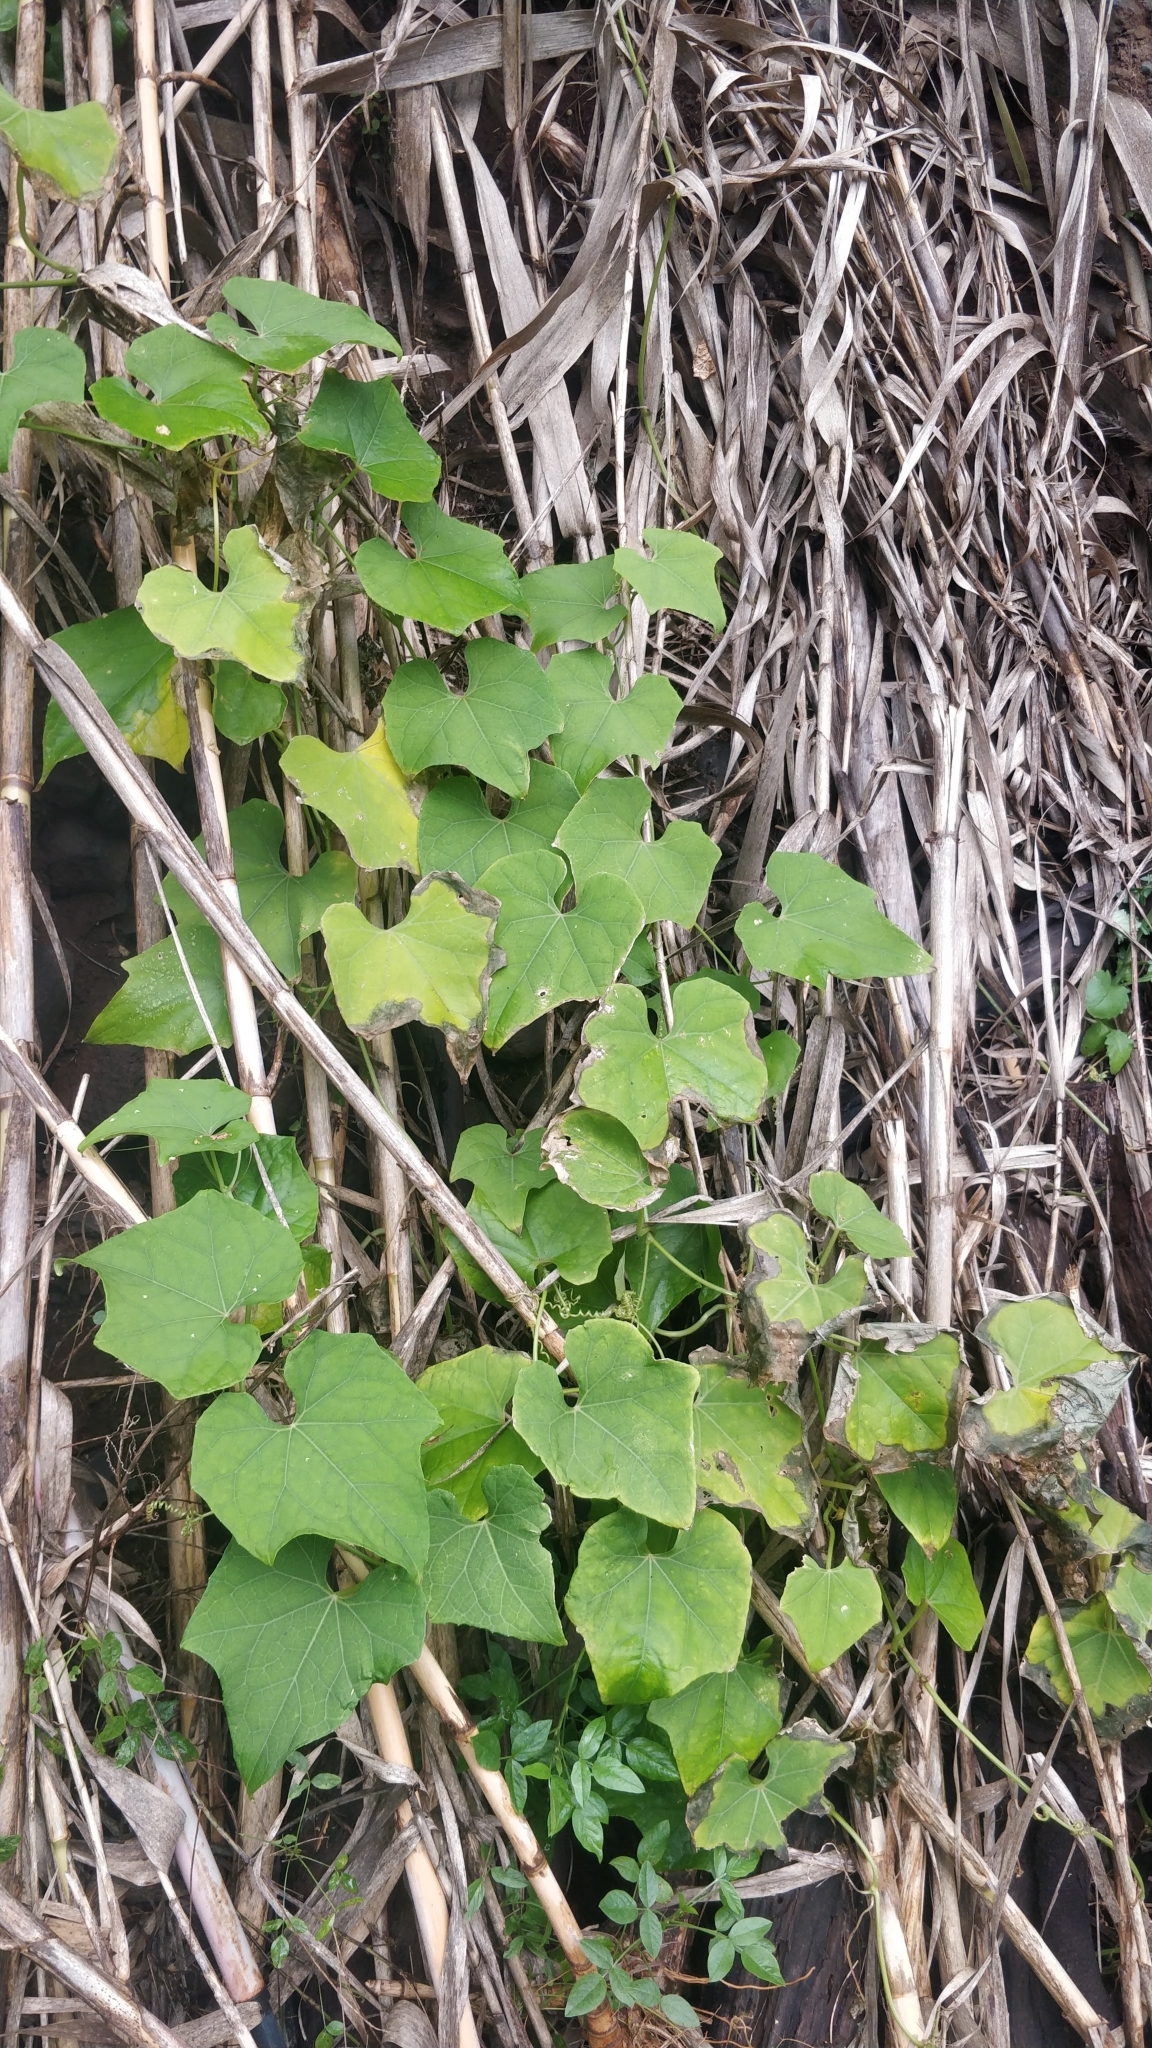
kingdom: Plantae
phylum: Tracheophyta
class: Magnoliopsida
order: Cucurbitales
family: Cucurbitaceae
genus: Sechium
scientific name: Sechium edule
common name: Chayote
